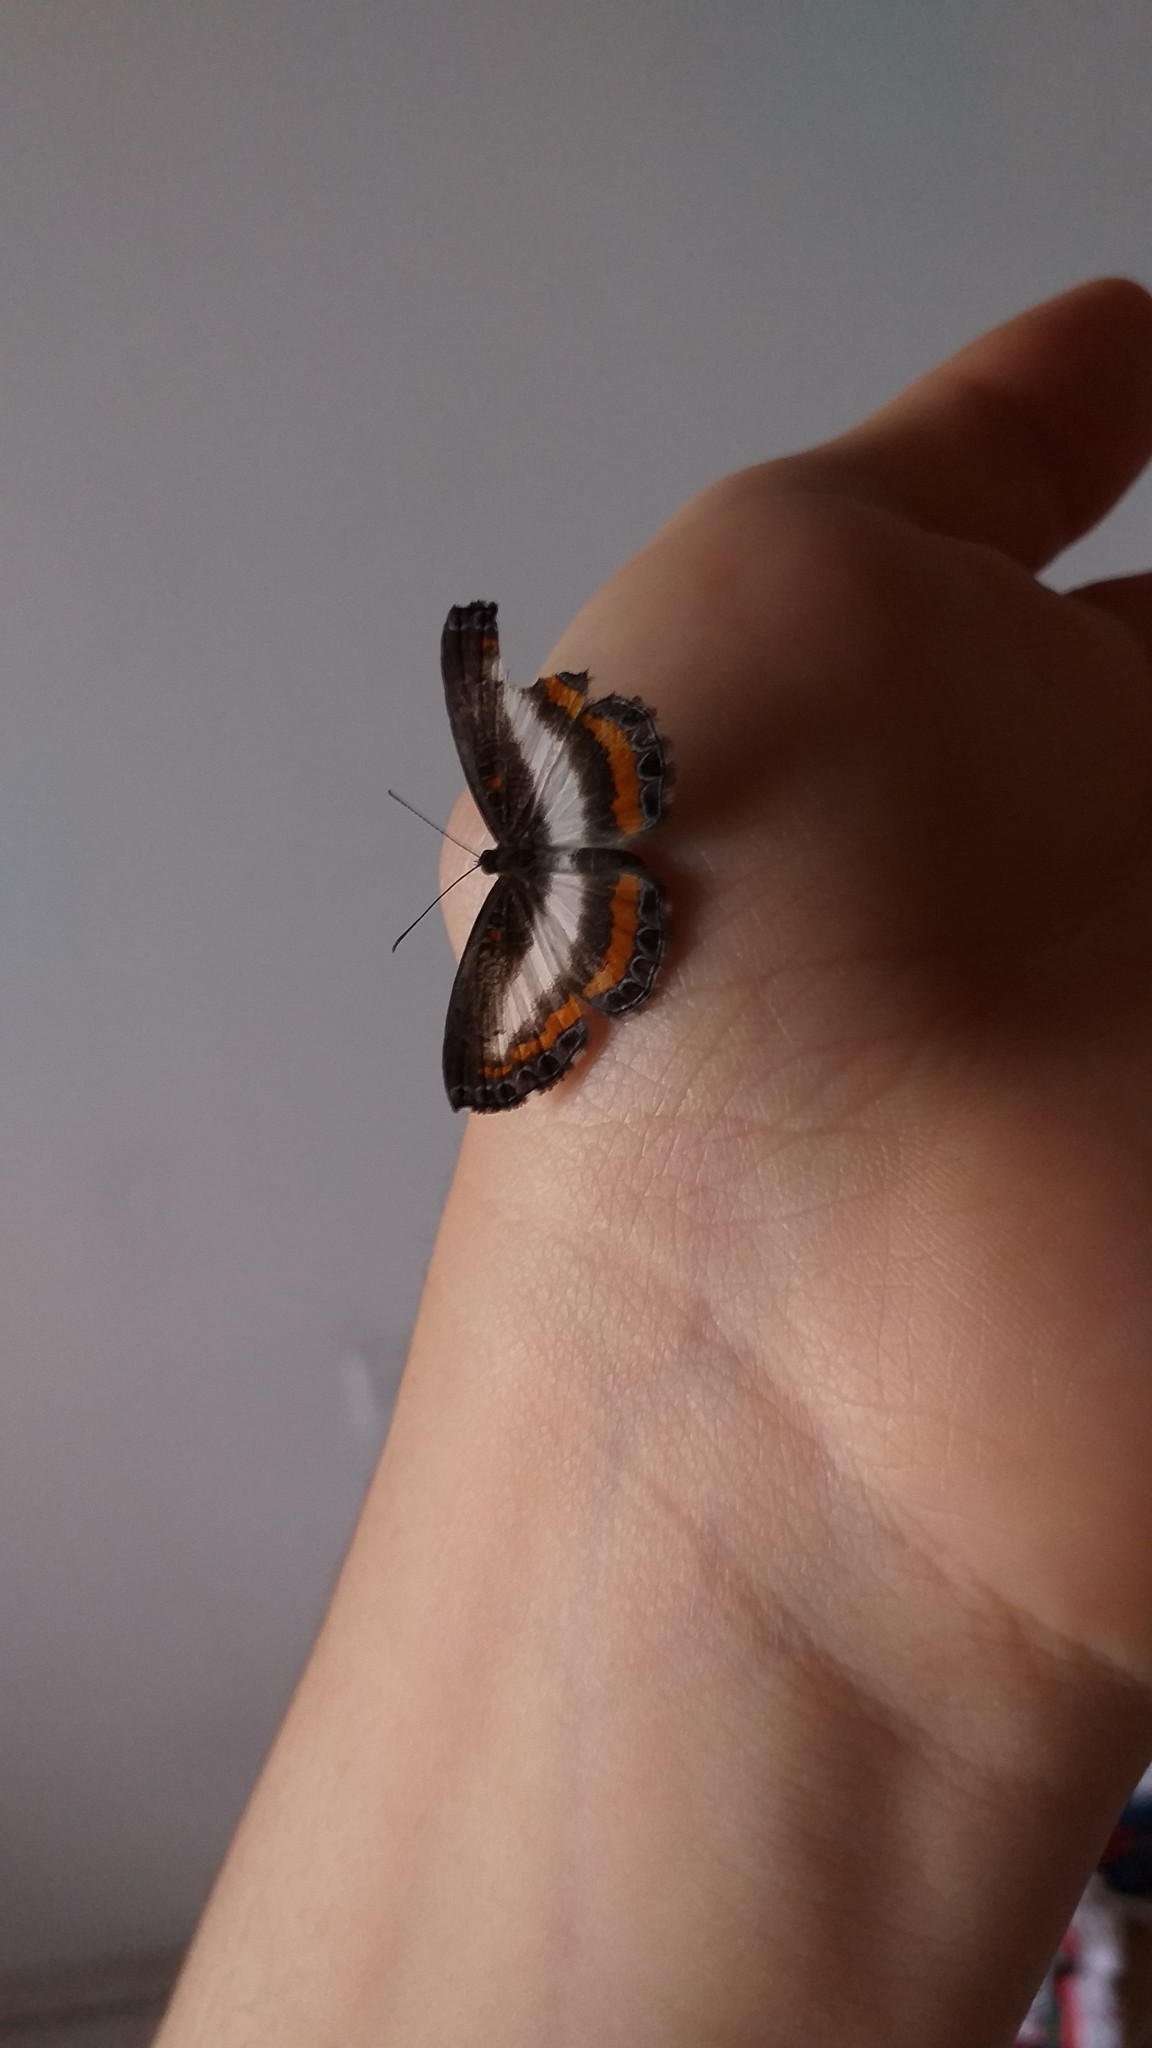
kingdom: Animalia
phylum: Arthropoda
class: Insecta
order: Lepidoptera
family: Riodinidae
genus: Calociasma
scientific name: Calociasma lilina
